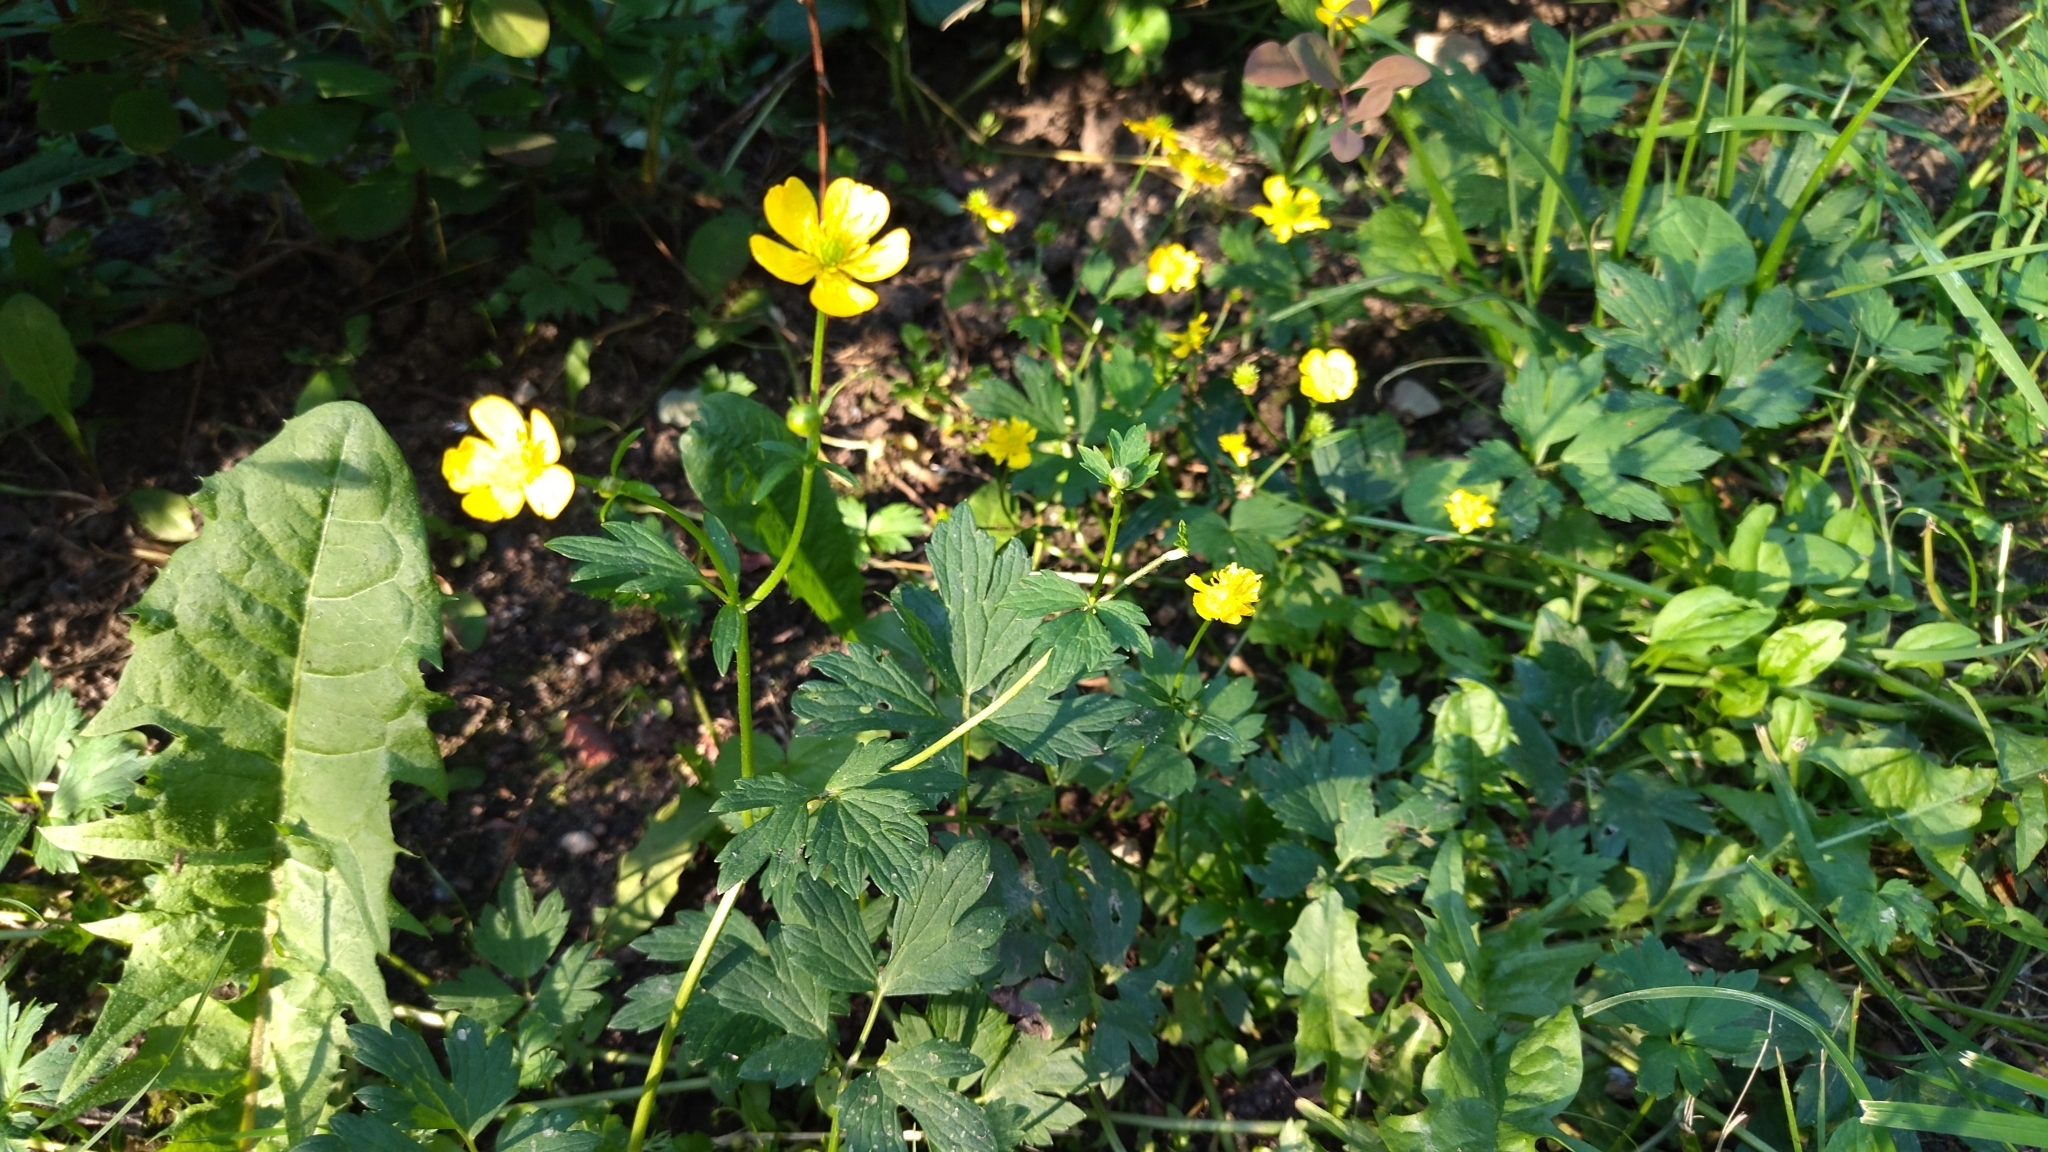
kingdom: Plantae
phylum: Tracheophyta
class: Magnoliopsida
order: Ranunculales
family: Ranunculaceae
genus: Ranunculus
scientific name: Ranunculus repens
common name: Creeping buttercup
